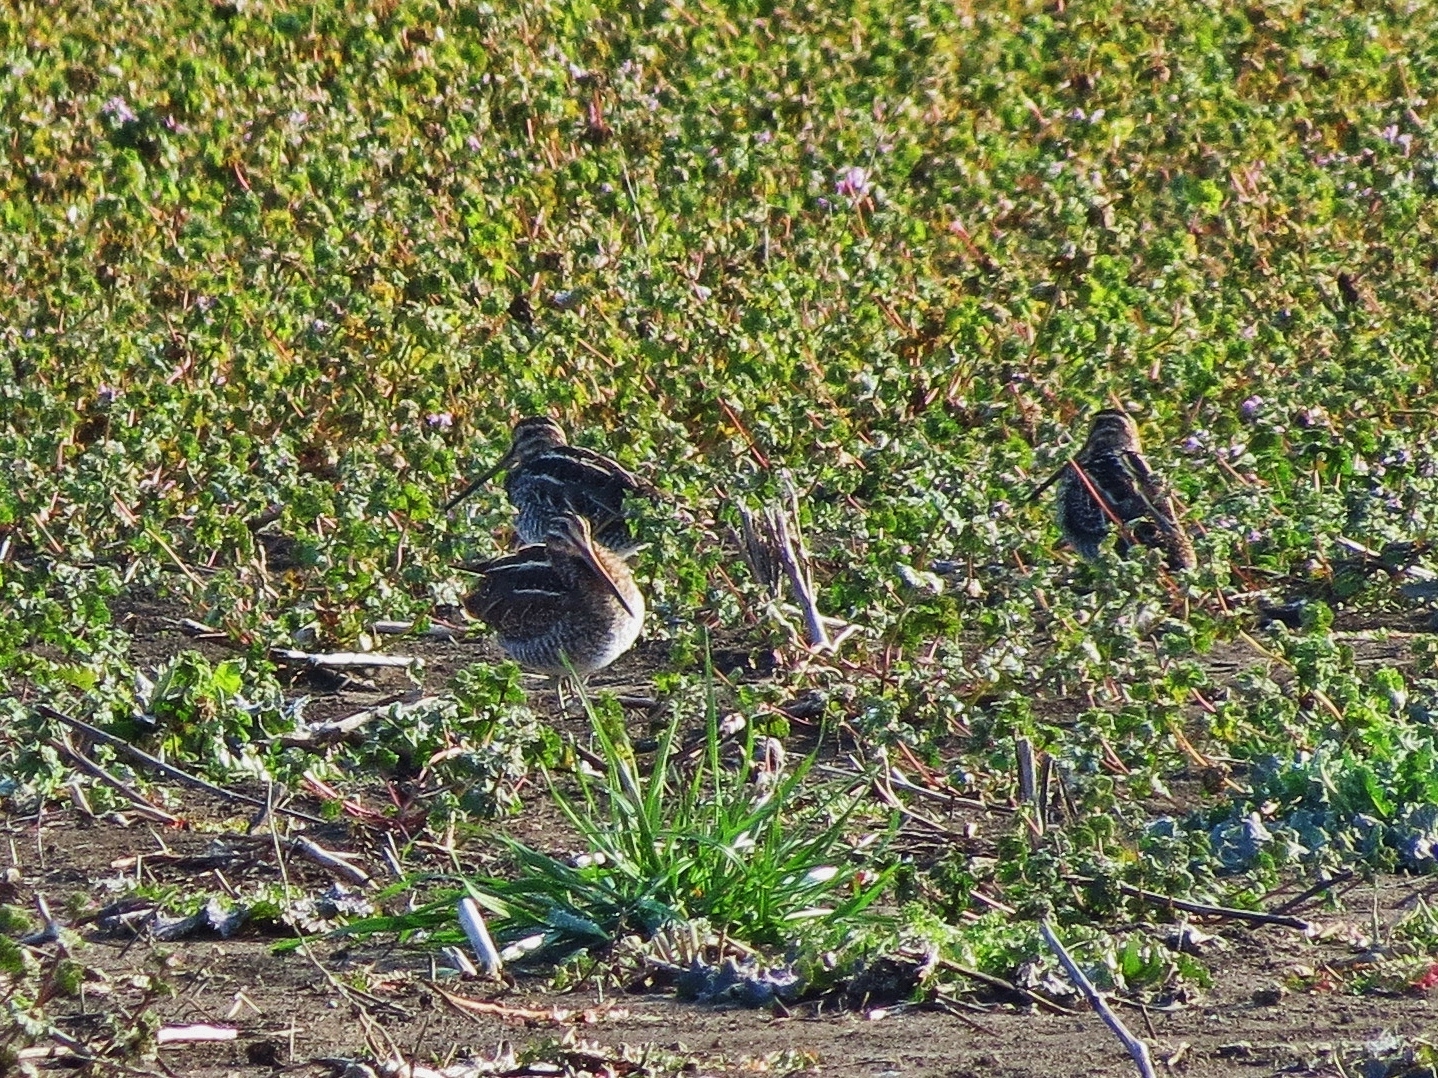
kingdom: Animalia
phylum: Chordata
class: Aves
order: Charadriiformes
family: Scolopacidae
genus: Gallinago
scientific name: Gallinago delicata
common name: Wilson's snipe
